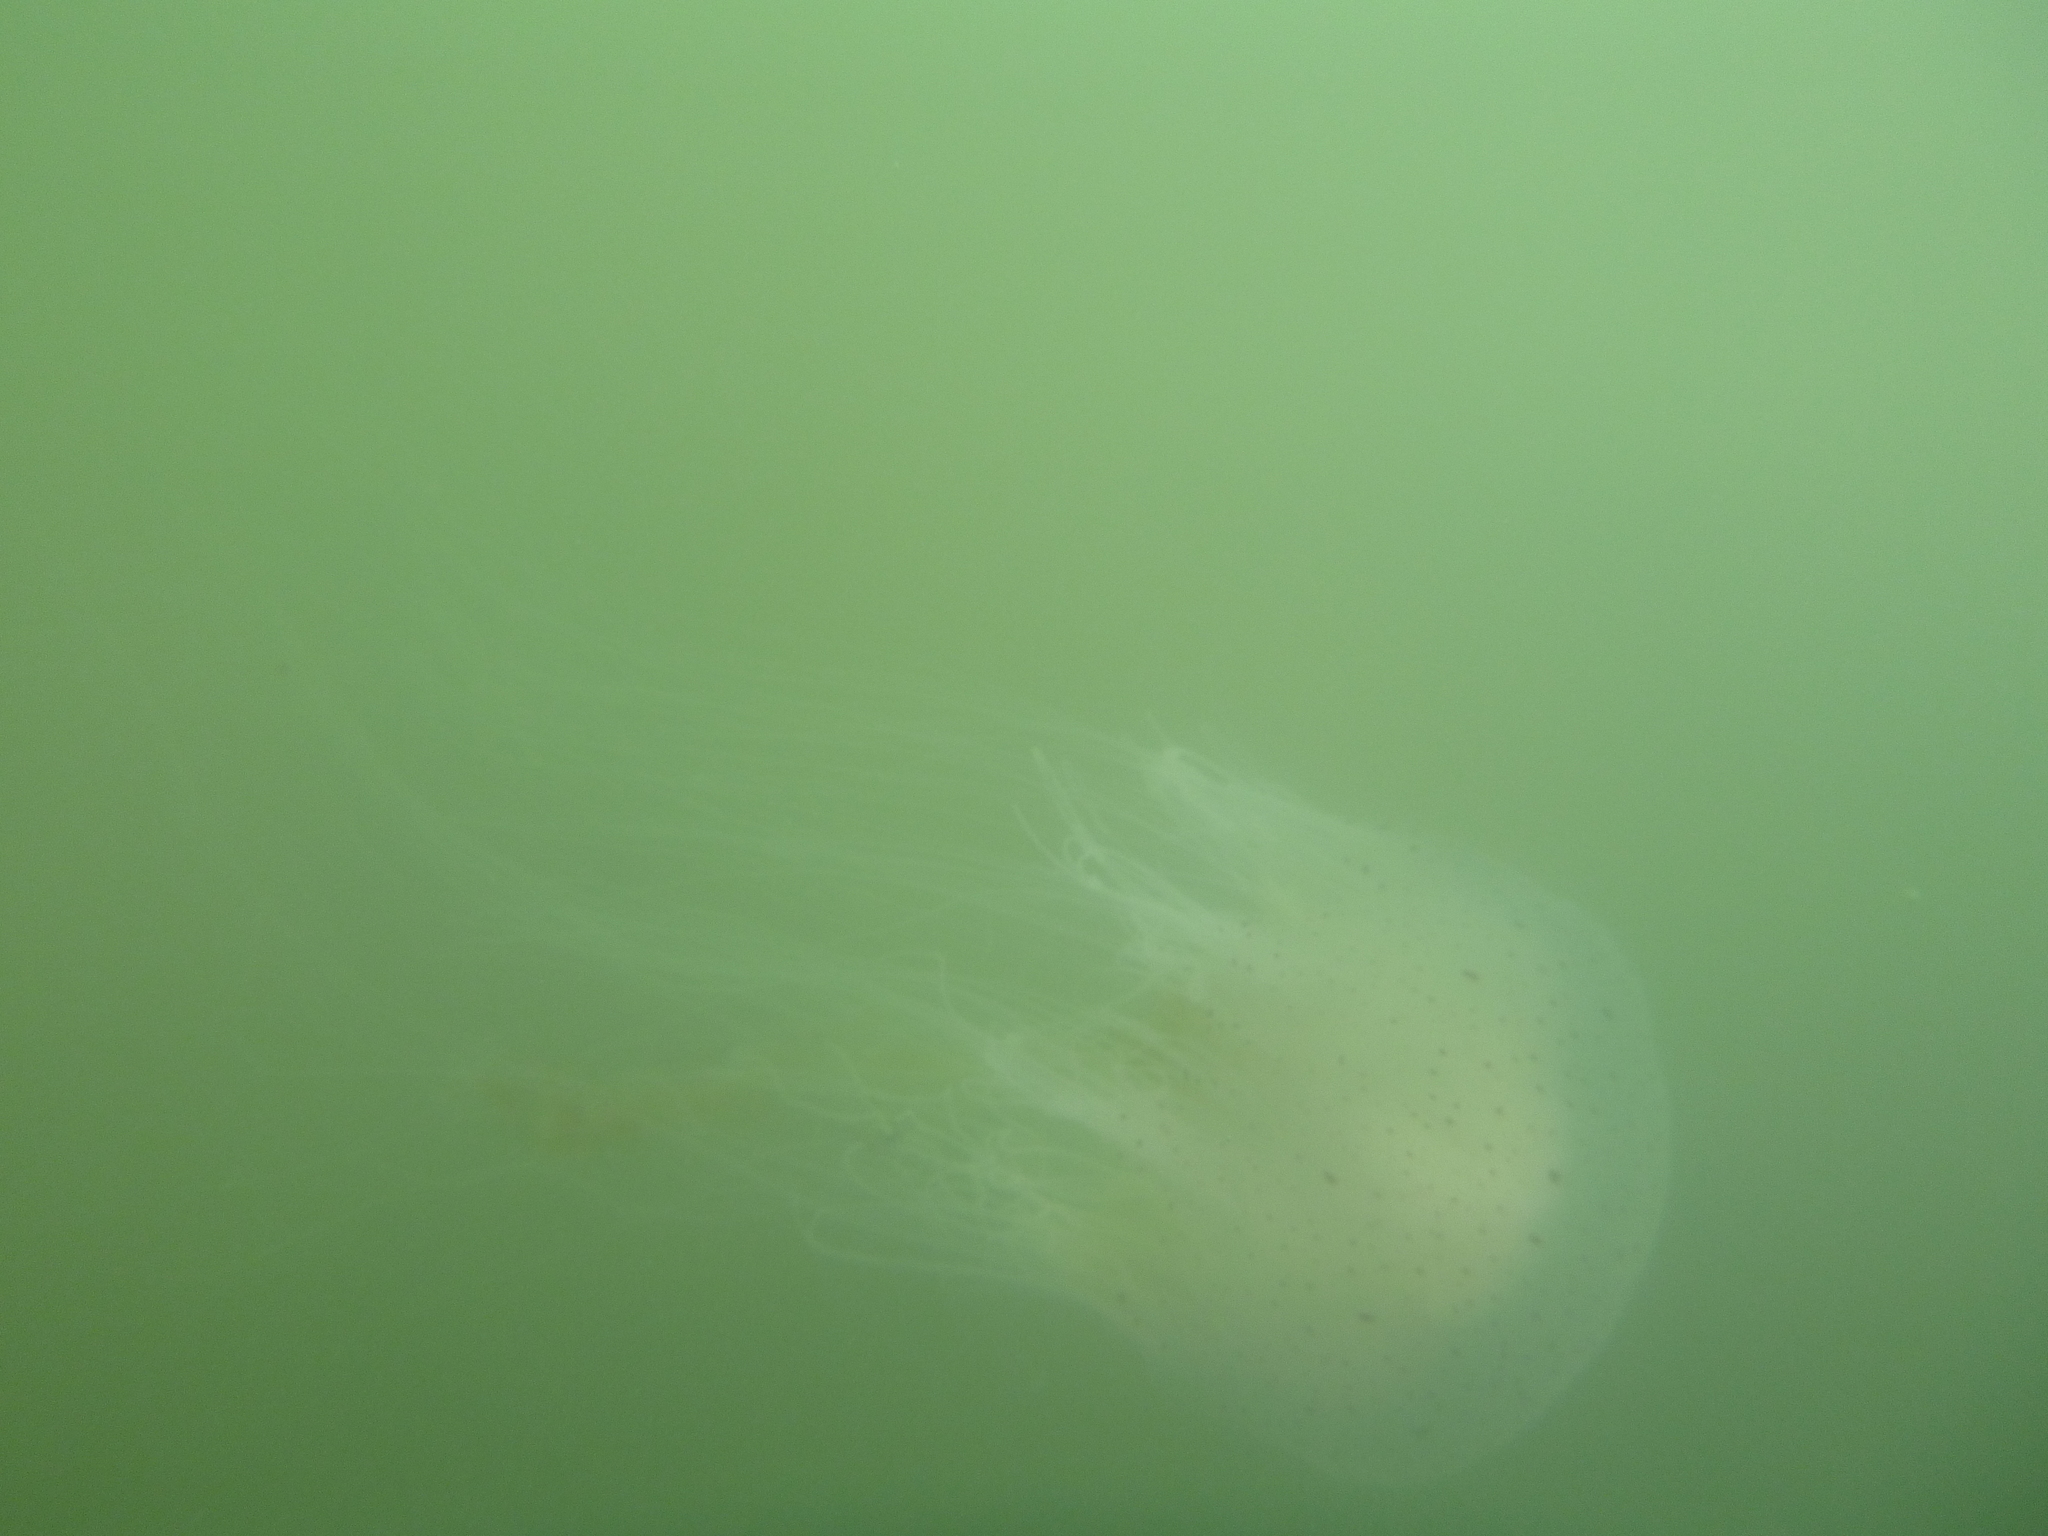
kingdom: Animalia
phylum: Cnidaria
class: Scyphozoa
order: Semaeostomeae
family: Cyaneidae
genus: Desmonema
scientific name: Desmonema gaudichaudi
